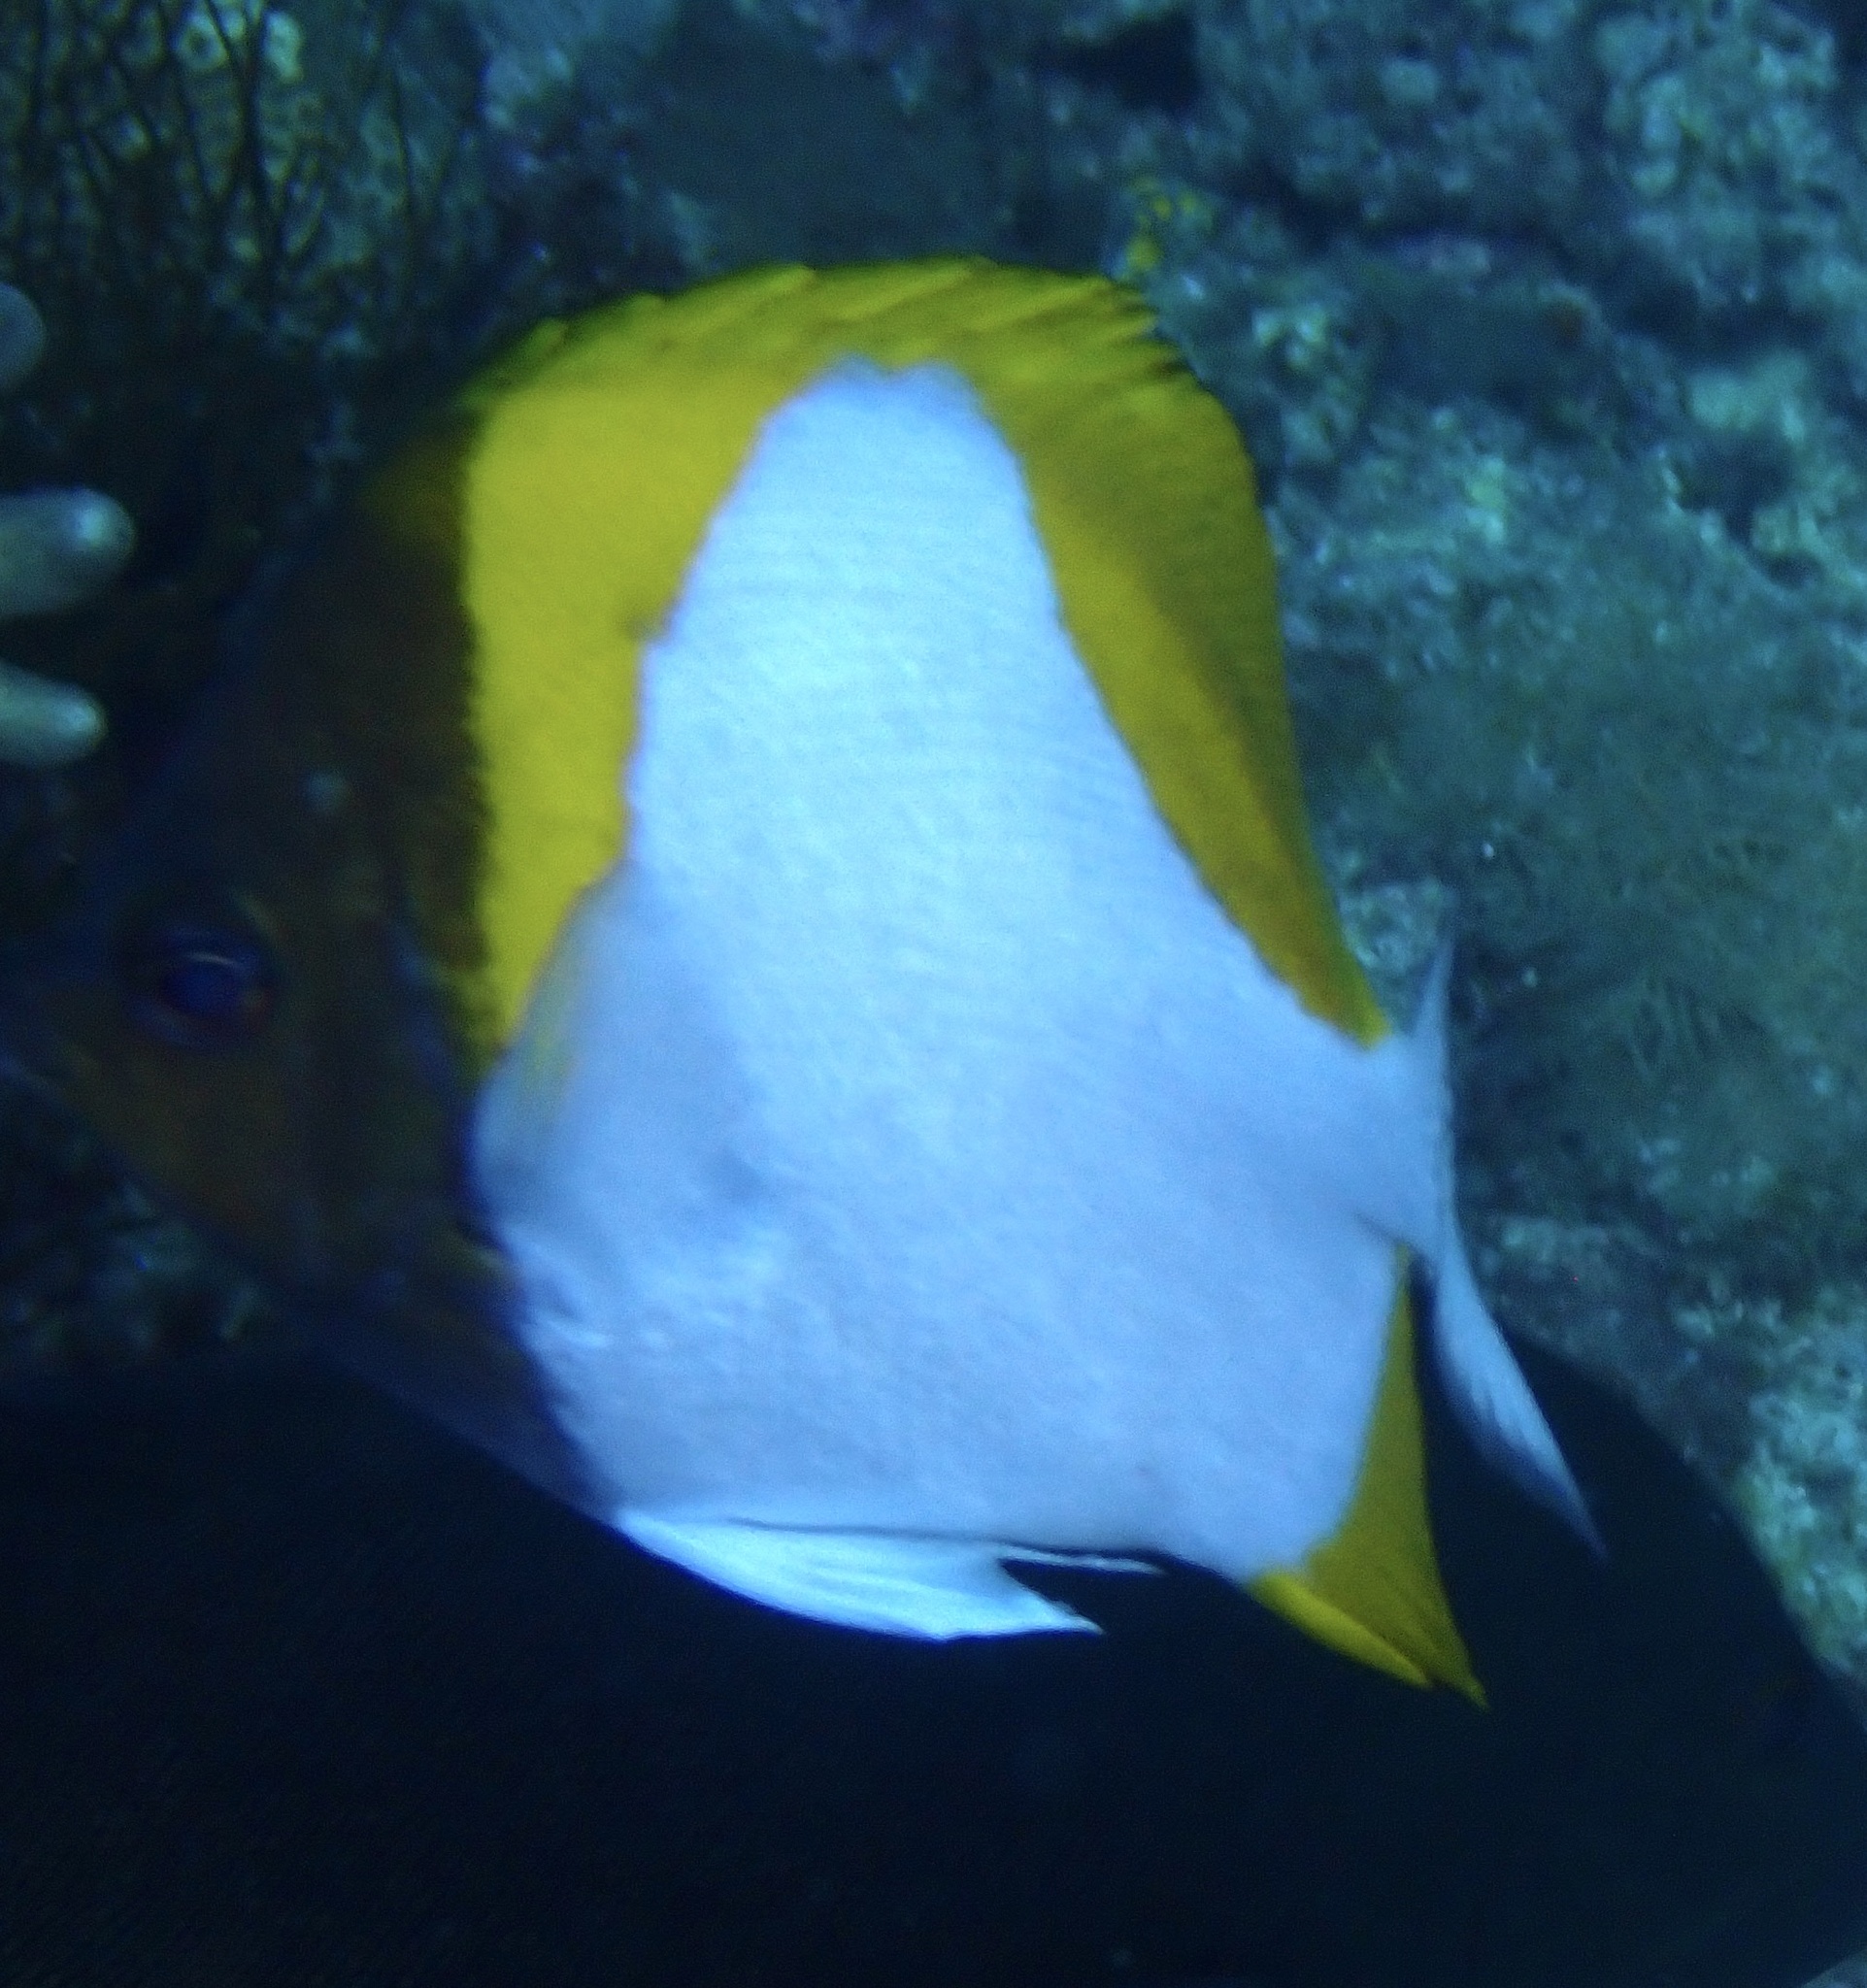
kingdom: Animalia
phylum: Chordata
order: Perciformes
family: Chaetodontidae
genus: Hemitaurichthys
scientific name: Hemitaurichthys polylepis
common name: Brushytoothed butterflyfish
